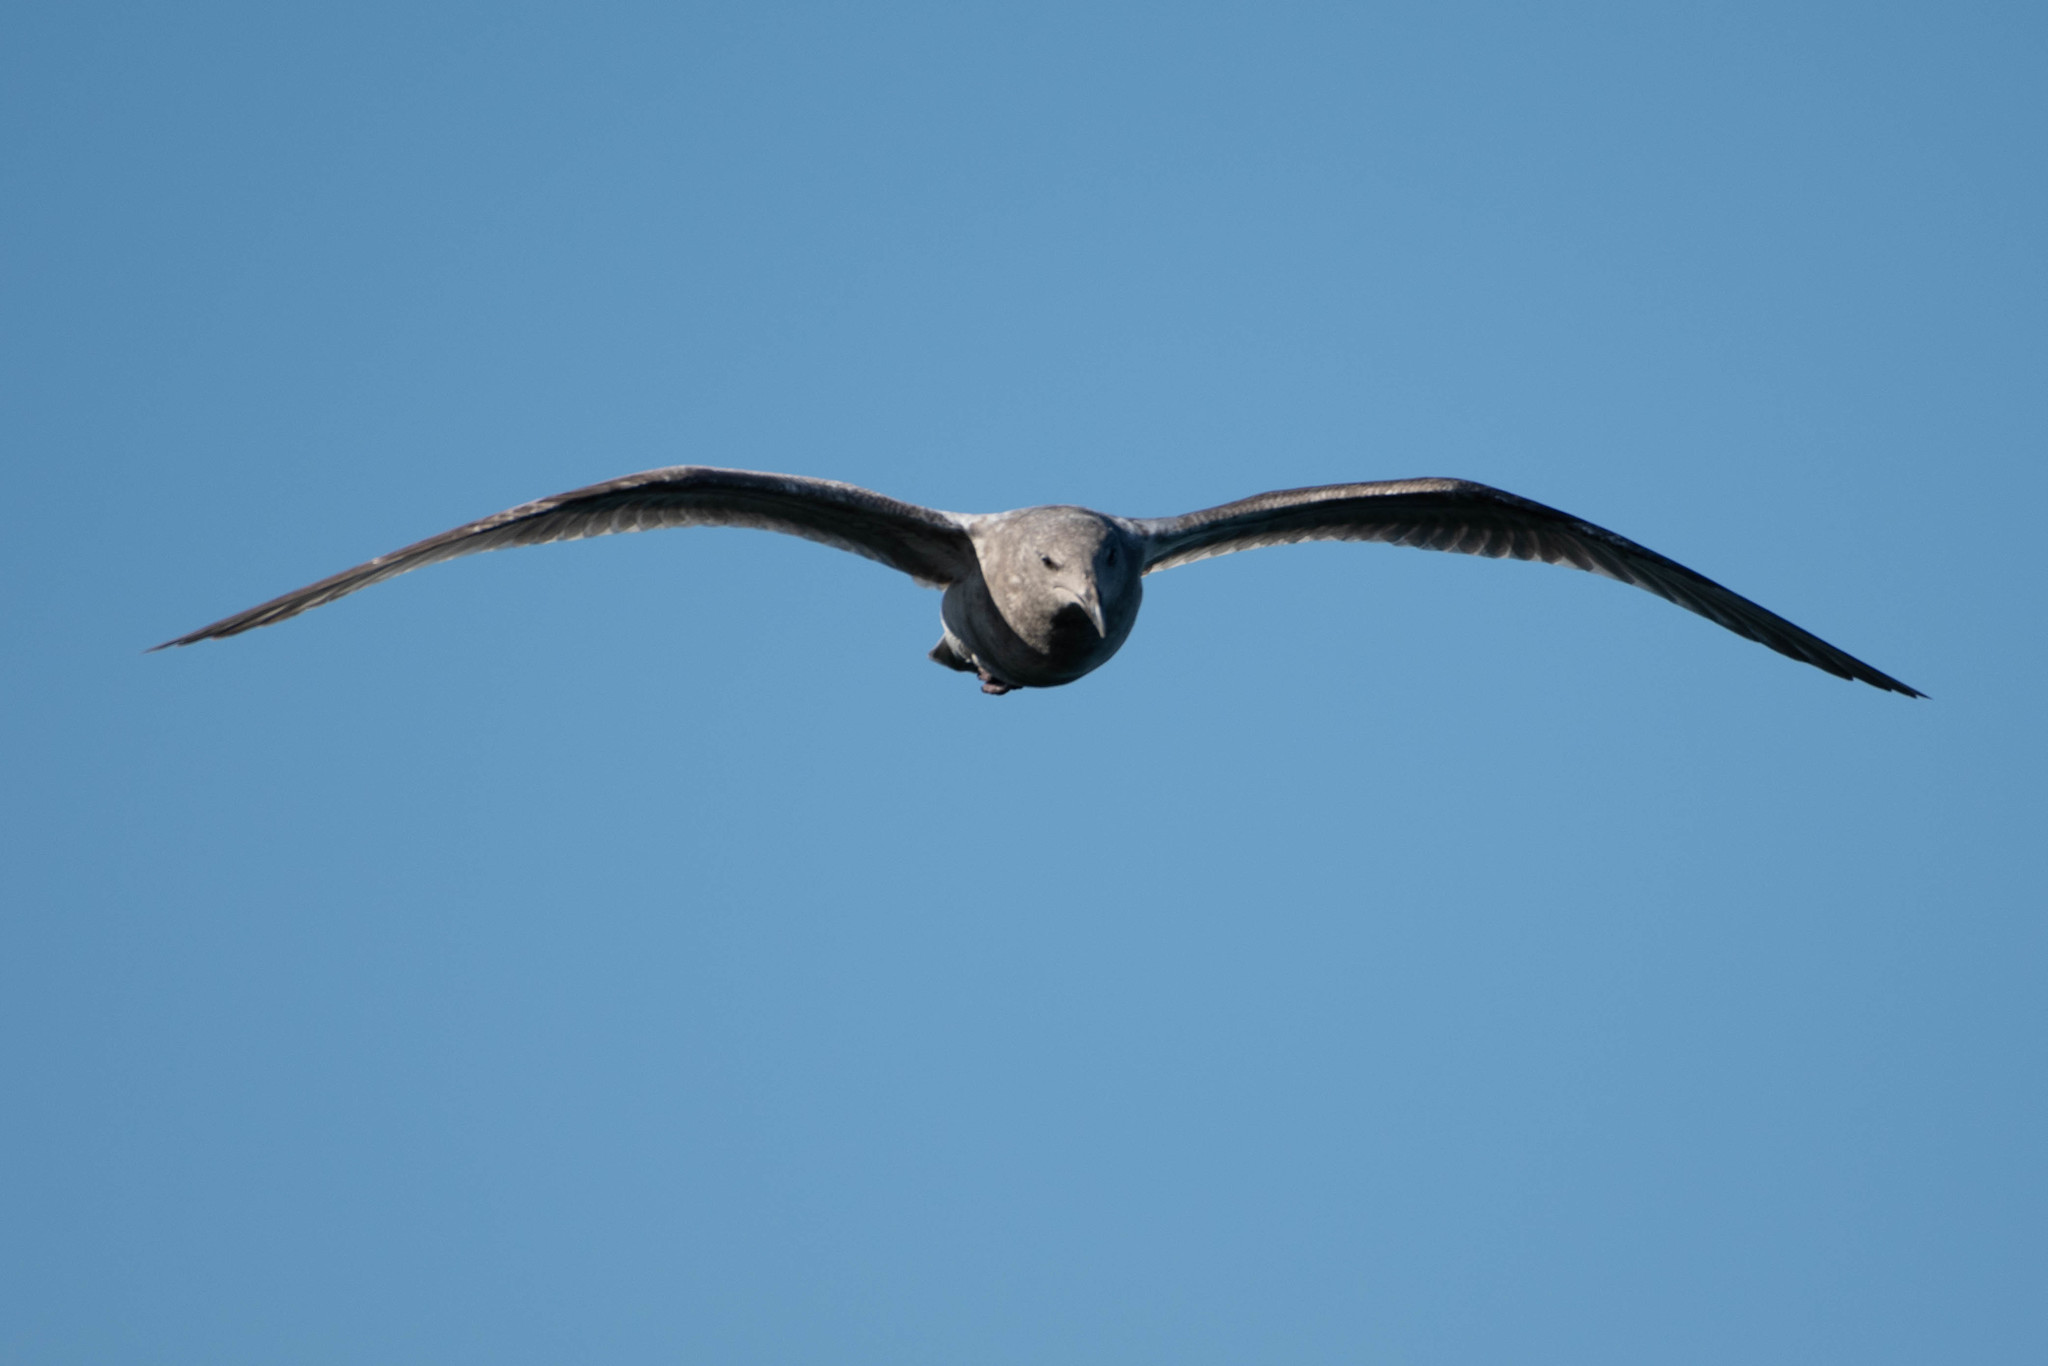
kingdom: Animalia
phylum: Chordata
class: Aves
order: Charadriiformes
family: Laridae
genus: Larus
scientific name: Larus
